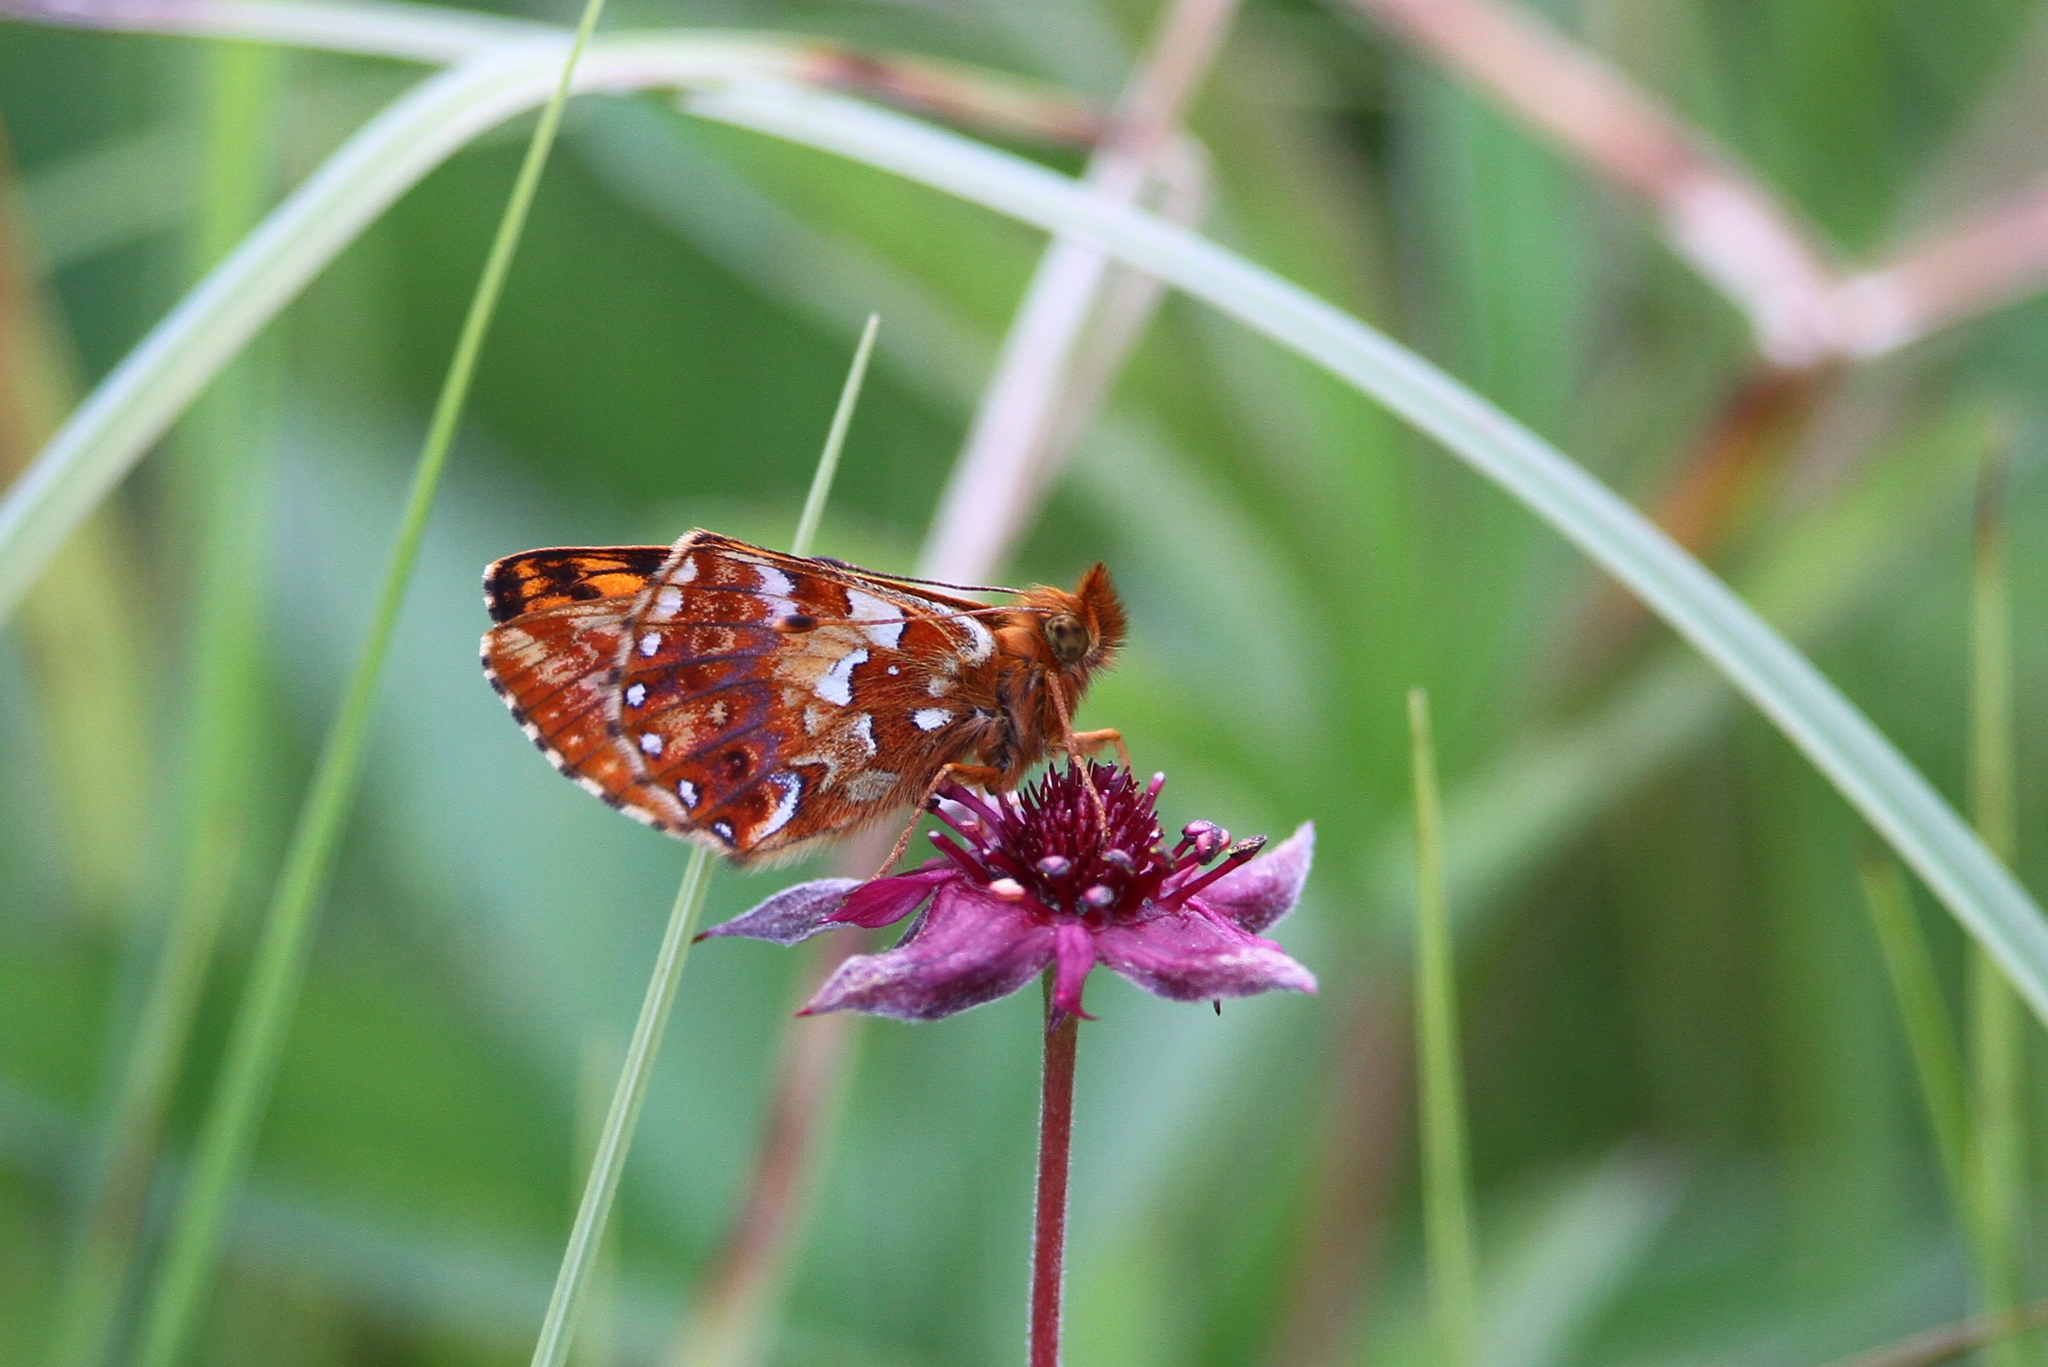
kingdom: Animalia
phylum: Arthropoda
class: Insecta
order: Lepidoptera
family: Nymphalidae
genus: Boloria
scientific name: Boloria aquilonaris
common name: Cranberry fritillary
